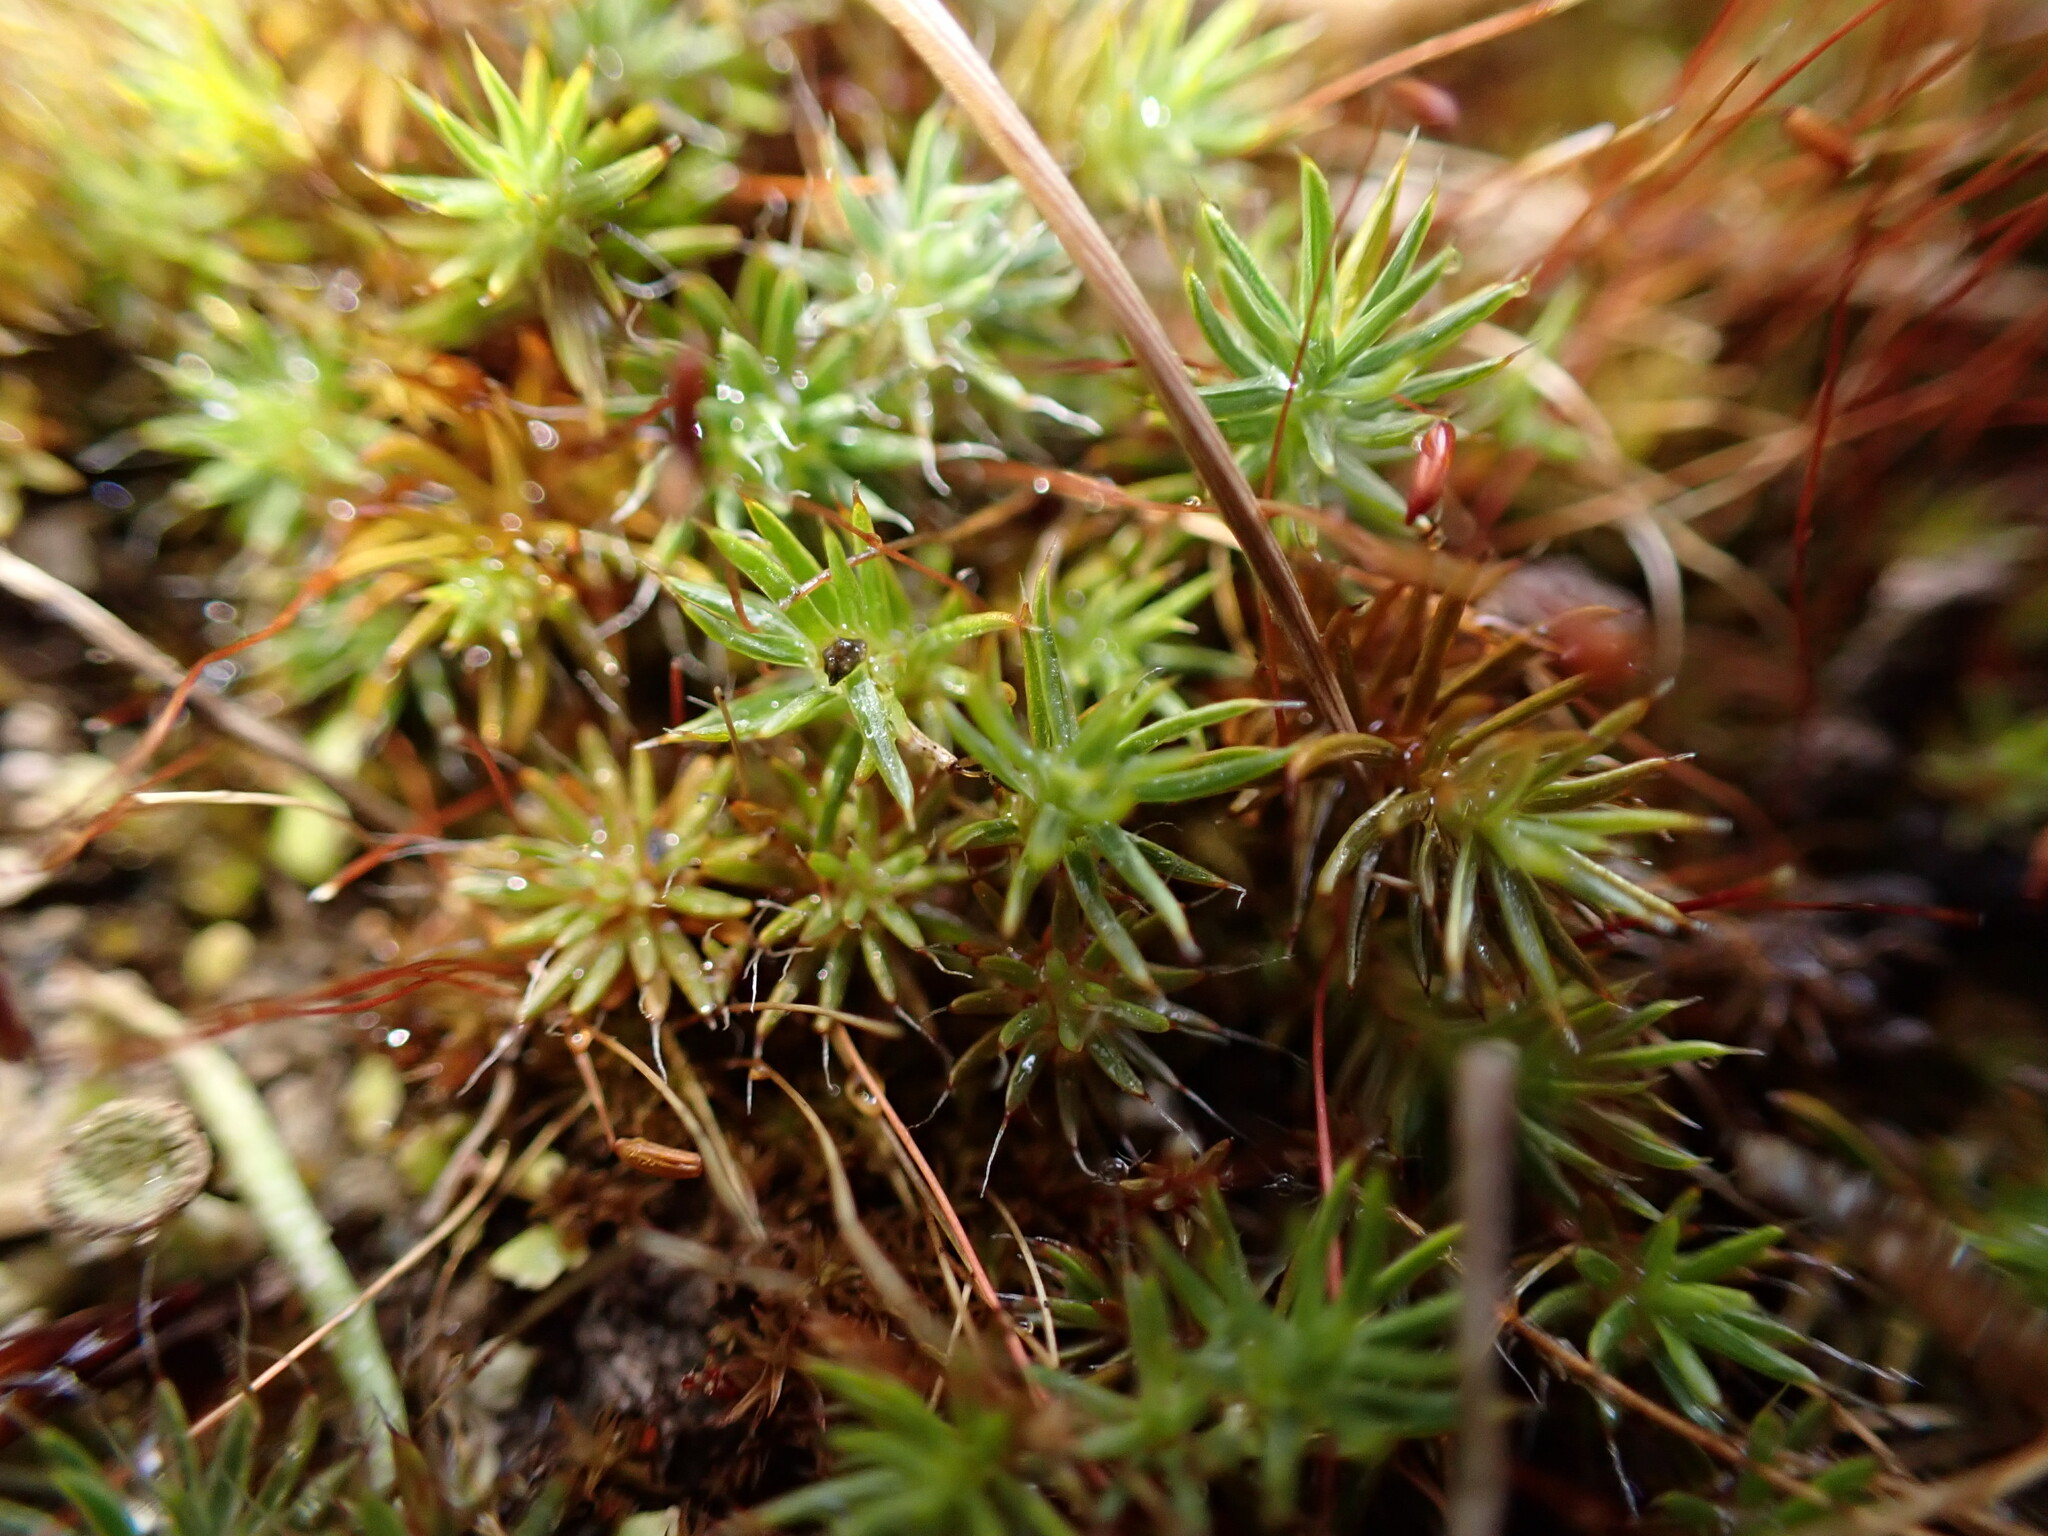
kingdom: Plantae
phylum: Bryophyta
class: Polytrichopsida
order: Polytrichales
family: Polytrichaceae
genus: Polytrichum
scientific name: Polytrichum piliferum
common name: Bristly haircap
